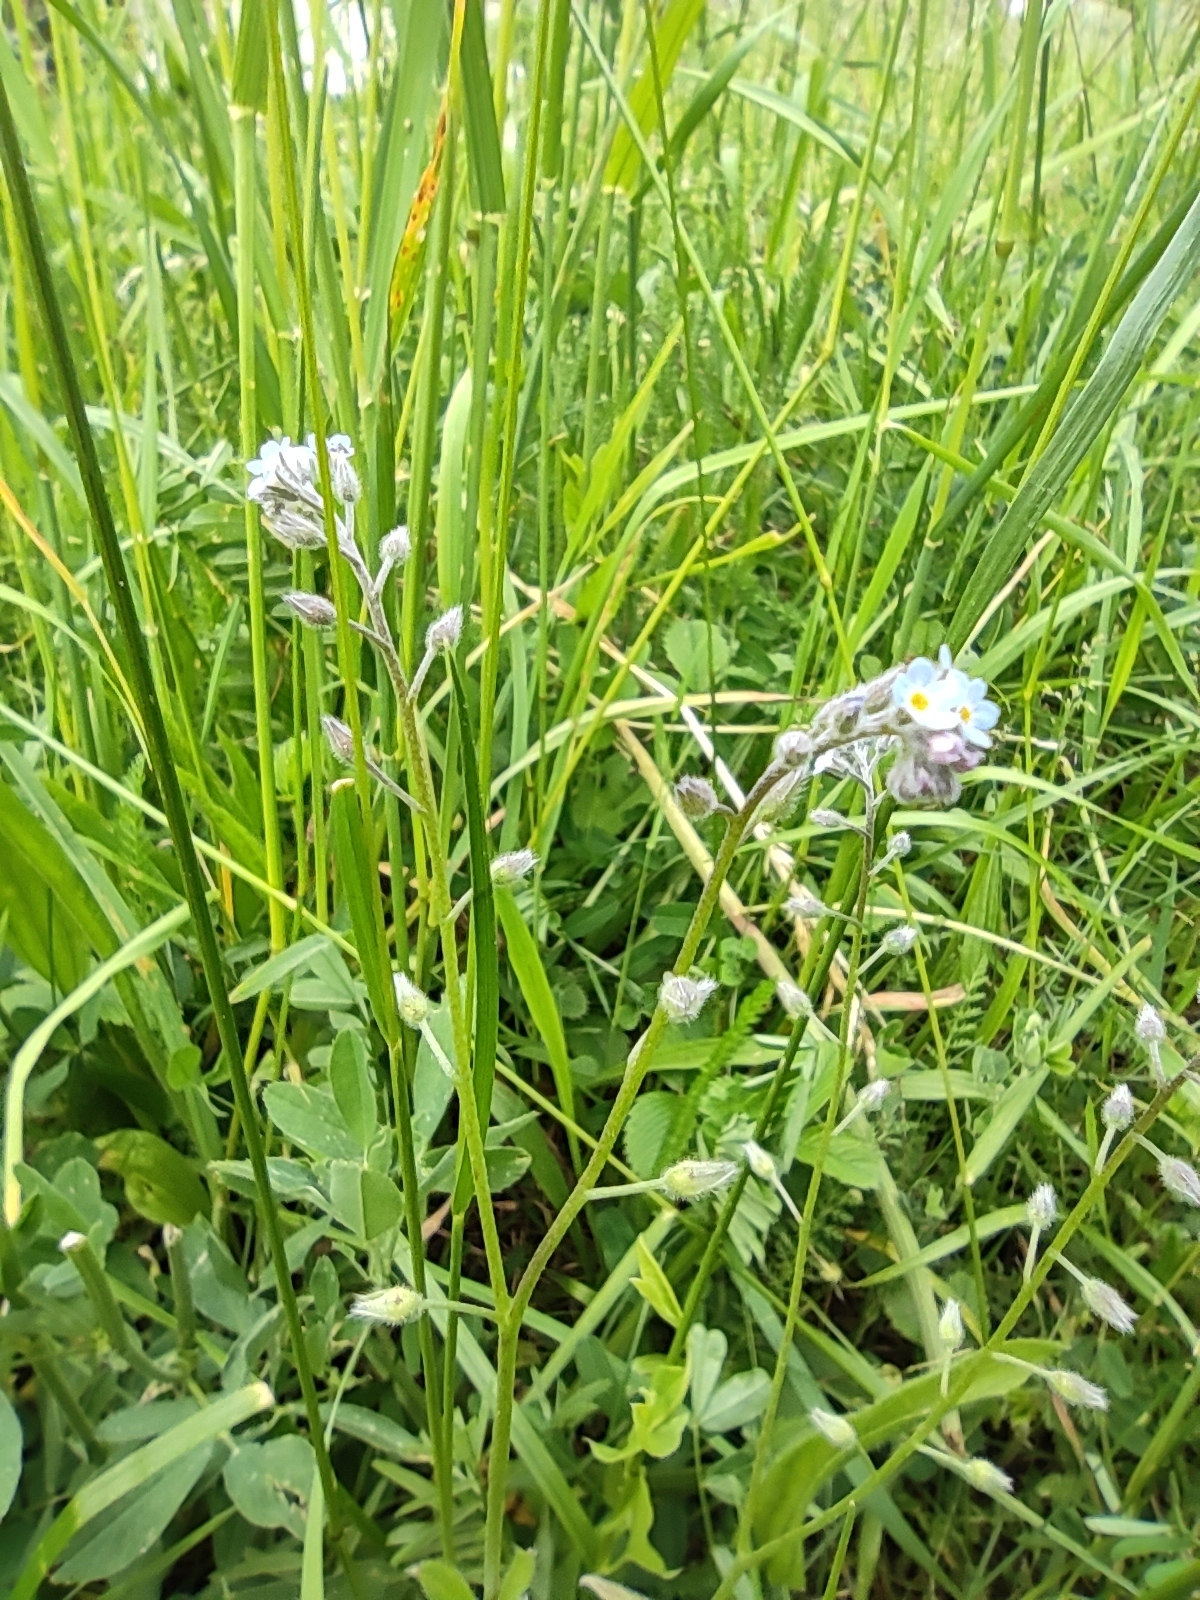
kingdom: Plantae
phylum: Tracheophyta
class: Magnoliopsida
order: Boraginales
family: Boraginaceae
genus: Myosotis
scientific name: Myosotis arvensis
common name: Field forget-me-not
